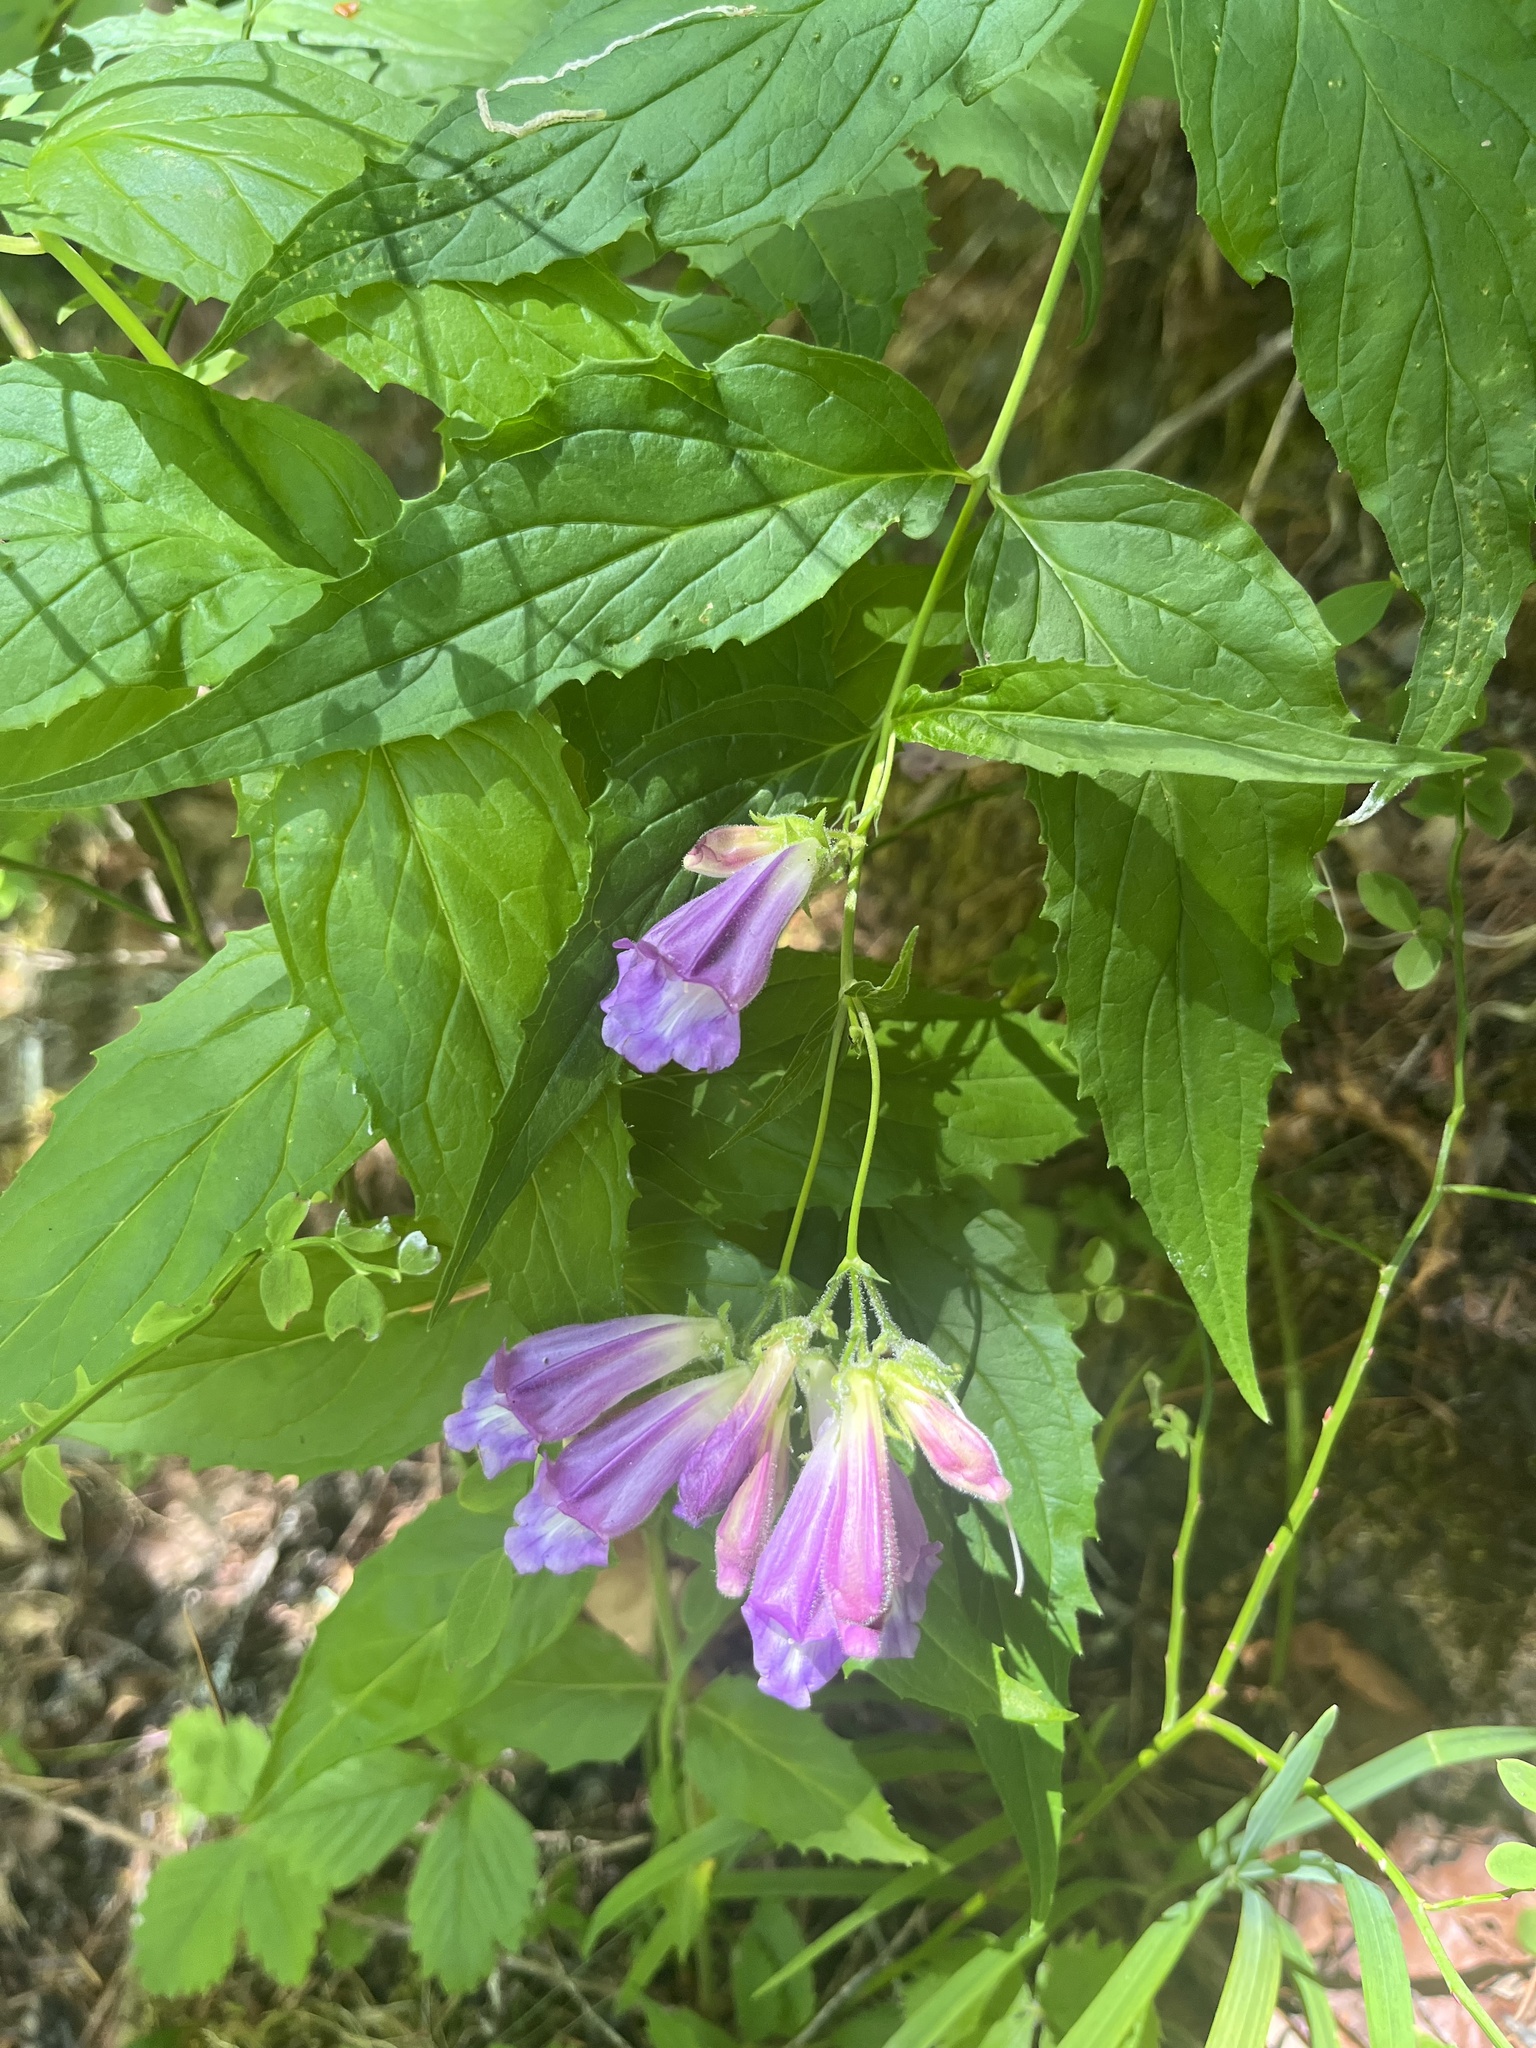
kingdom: Plantae
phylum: Tracheophyta
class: Magnoliopsida
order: Lamiales
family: Plantaginaceae
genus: Nothochelone
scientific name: Nothochelone nemorosa
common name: Woodland beardtongue
